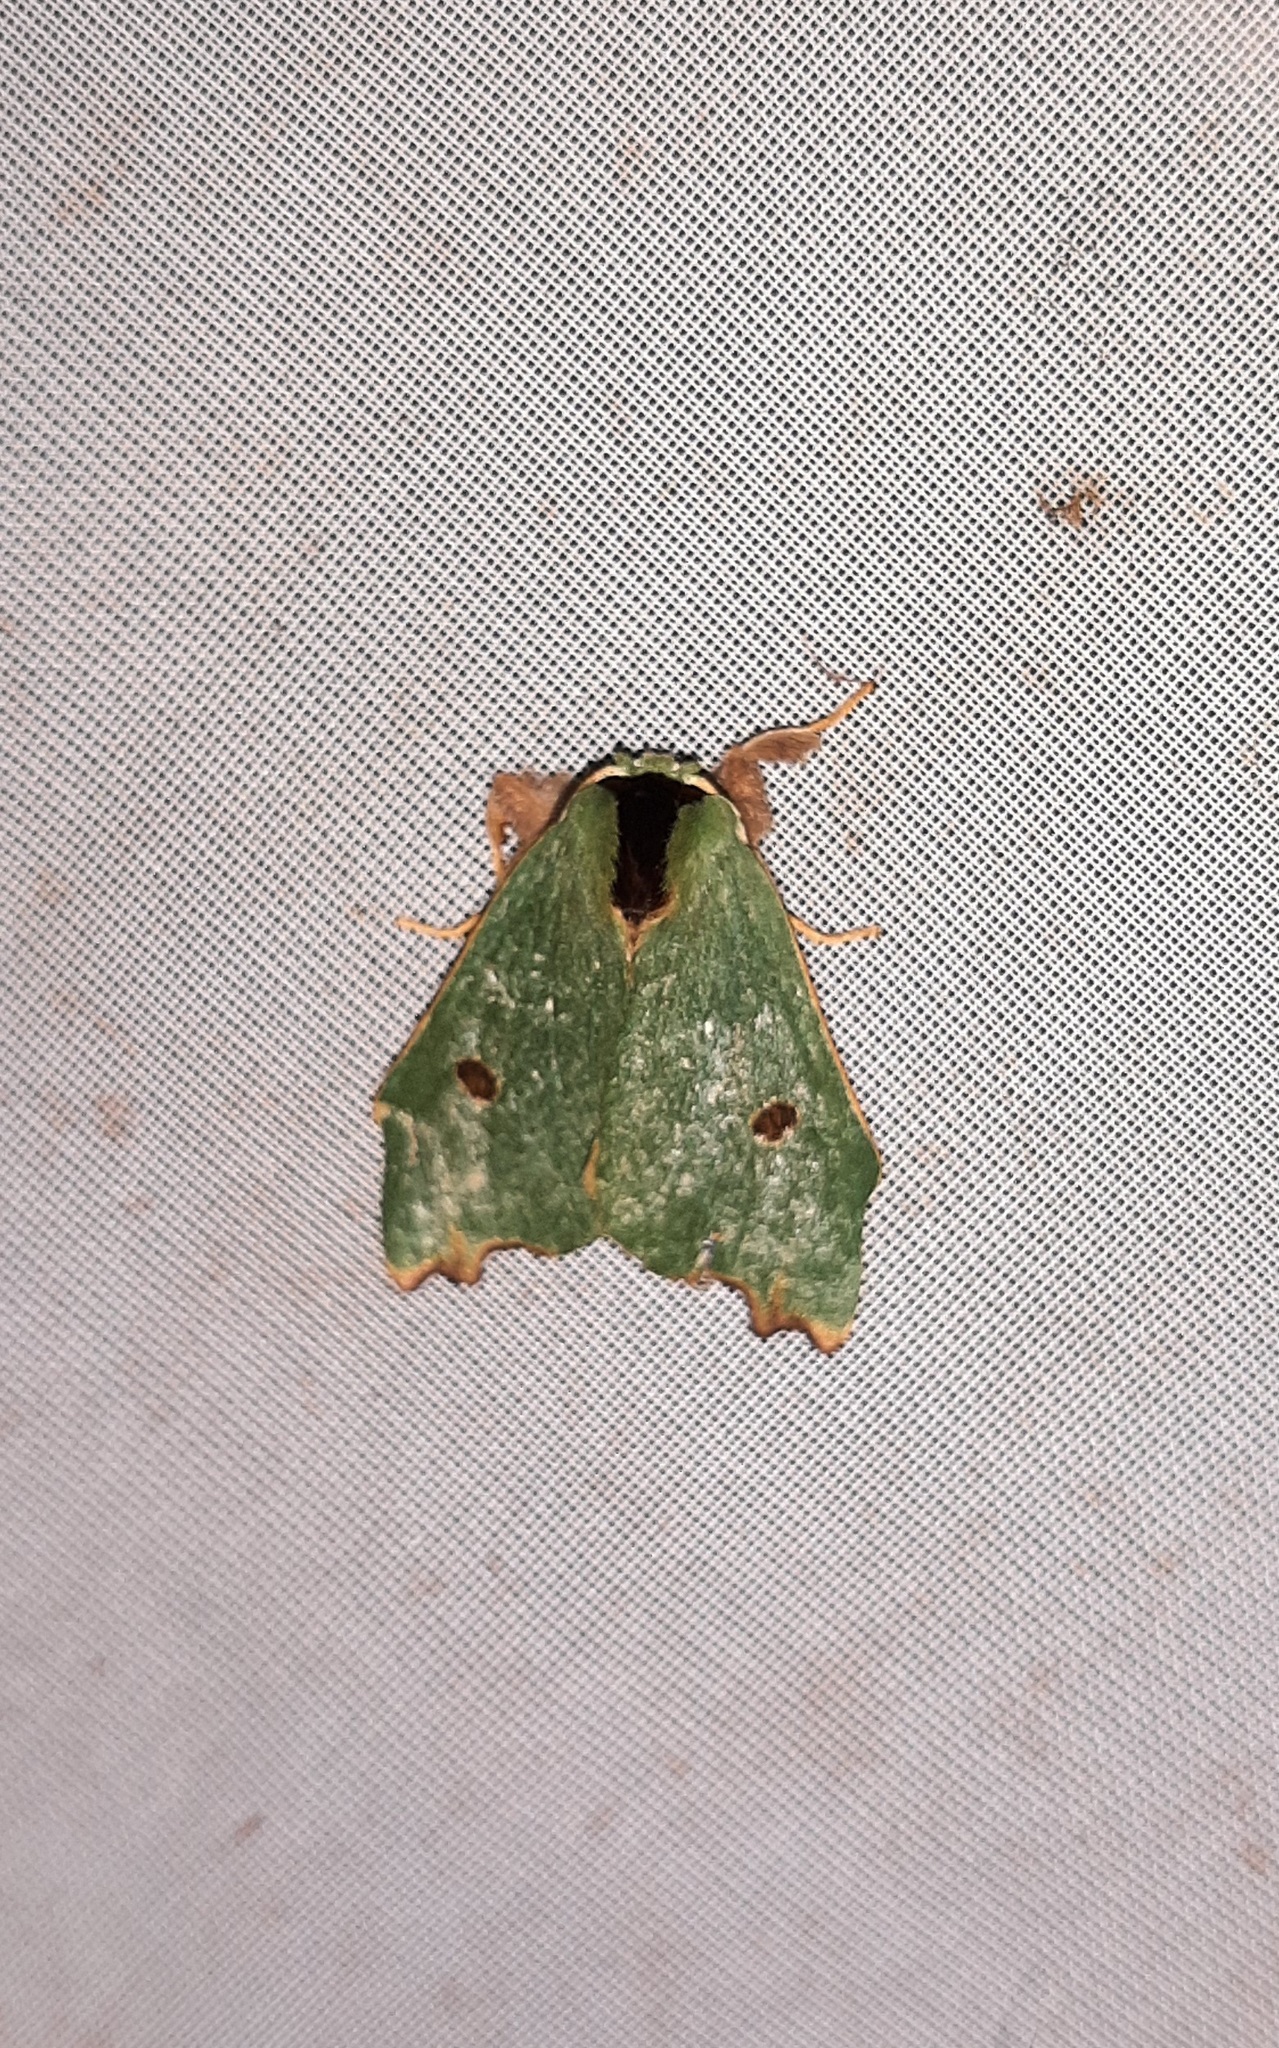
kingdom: Animalia
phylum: Arthropoda
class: Insecta
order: Lepidoptera
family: Notodontidae
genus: Rosema
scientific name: Rosema deolis
